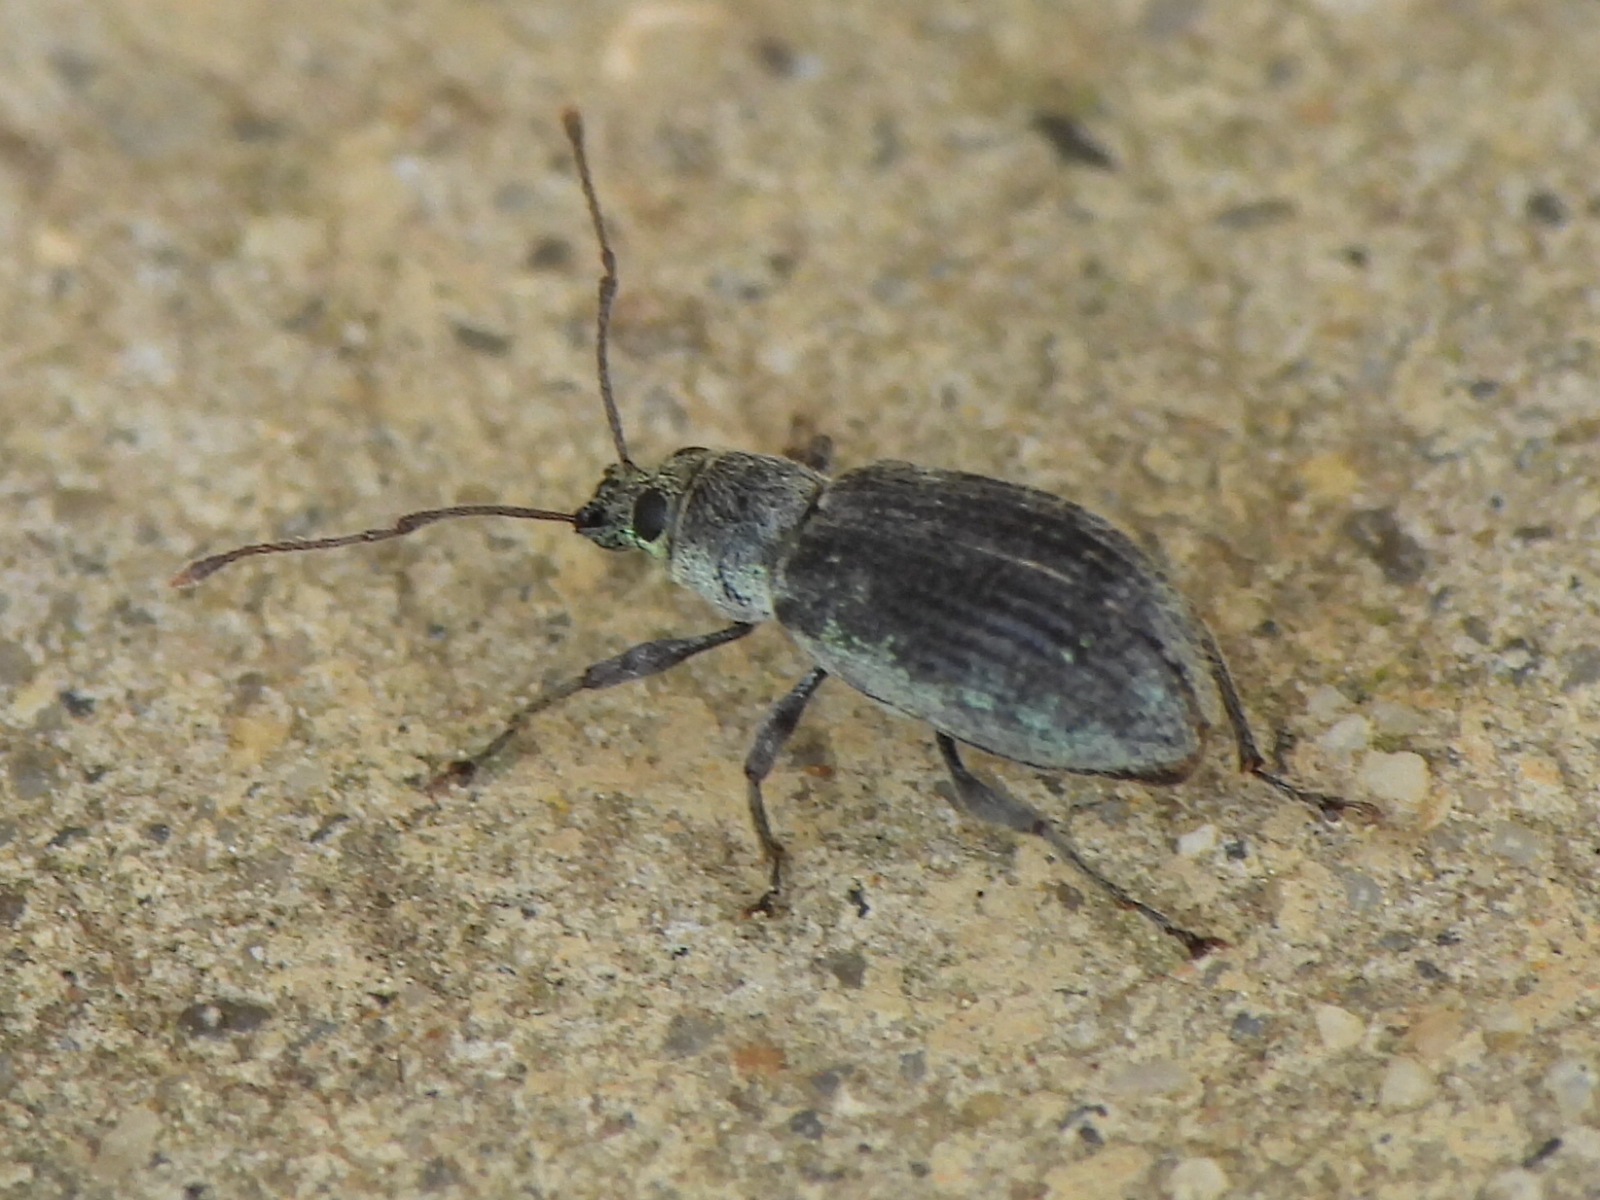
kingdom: Animalia
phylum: Arthropoda
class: Insecta
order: Coleoptera
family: Curculionidae
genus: Cyrtepistomus
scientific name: Cyrtepistomus castaneus
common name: Weevil
